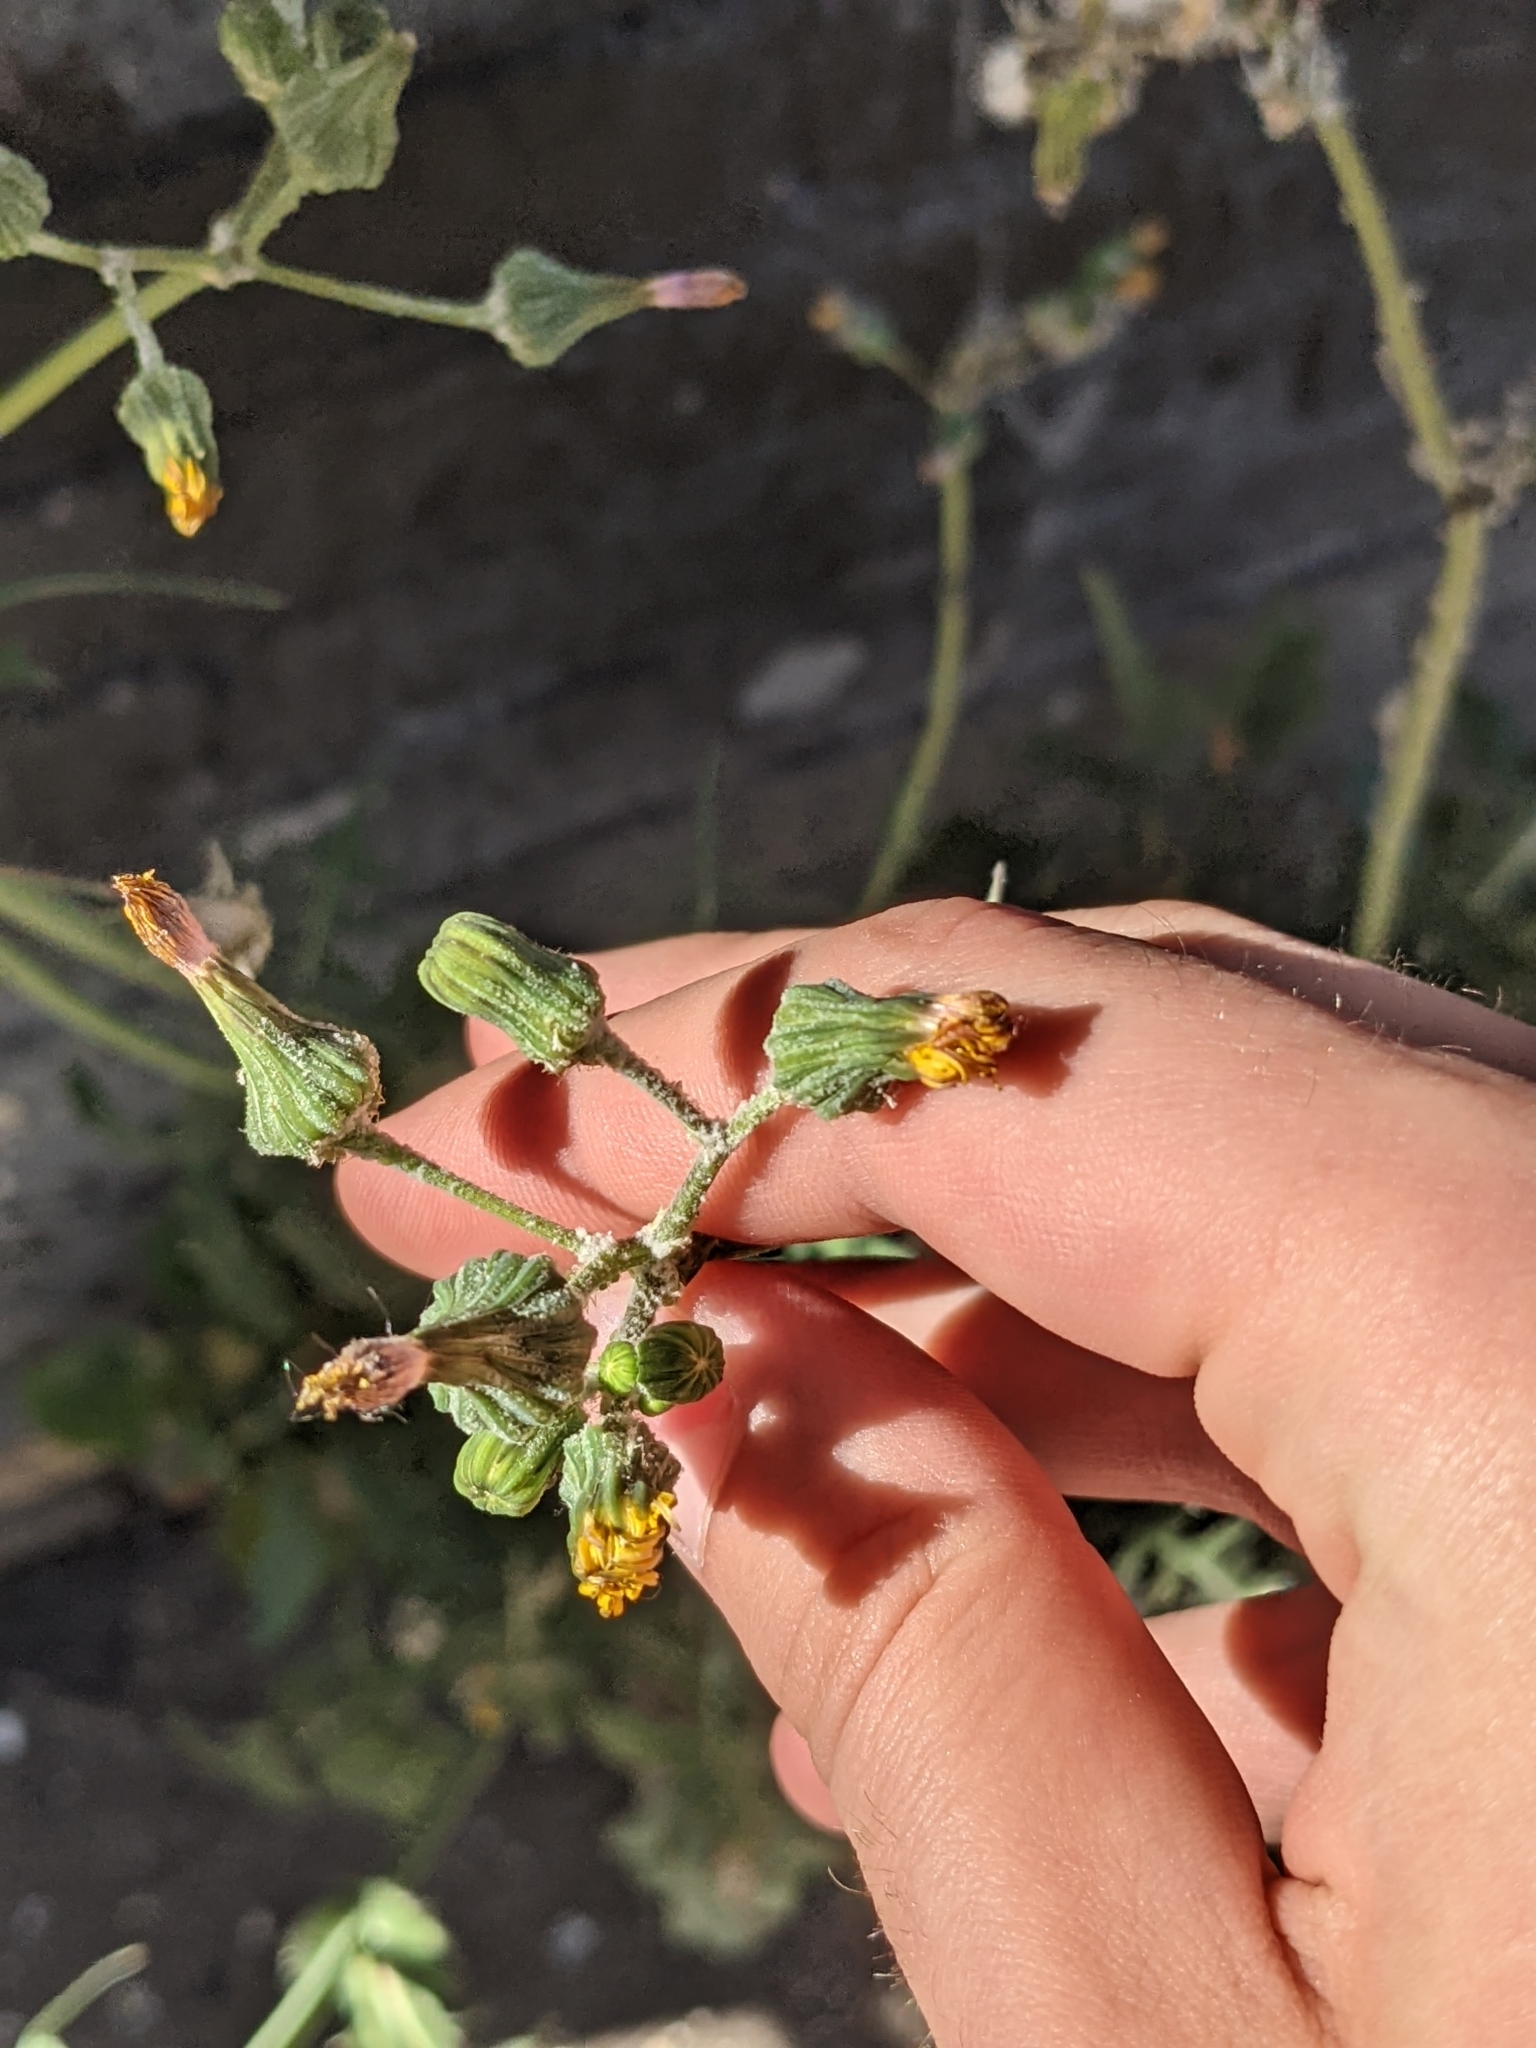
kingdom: Plantae
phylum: Tracheophyta
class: Magnoliopsida
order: Asterales
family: Asteraceae
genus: Sonchus
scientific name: Sonchus oleraceus
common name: Common sowthistle
